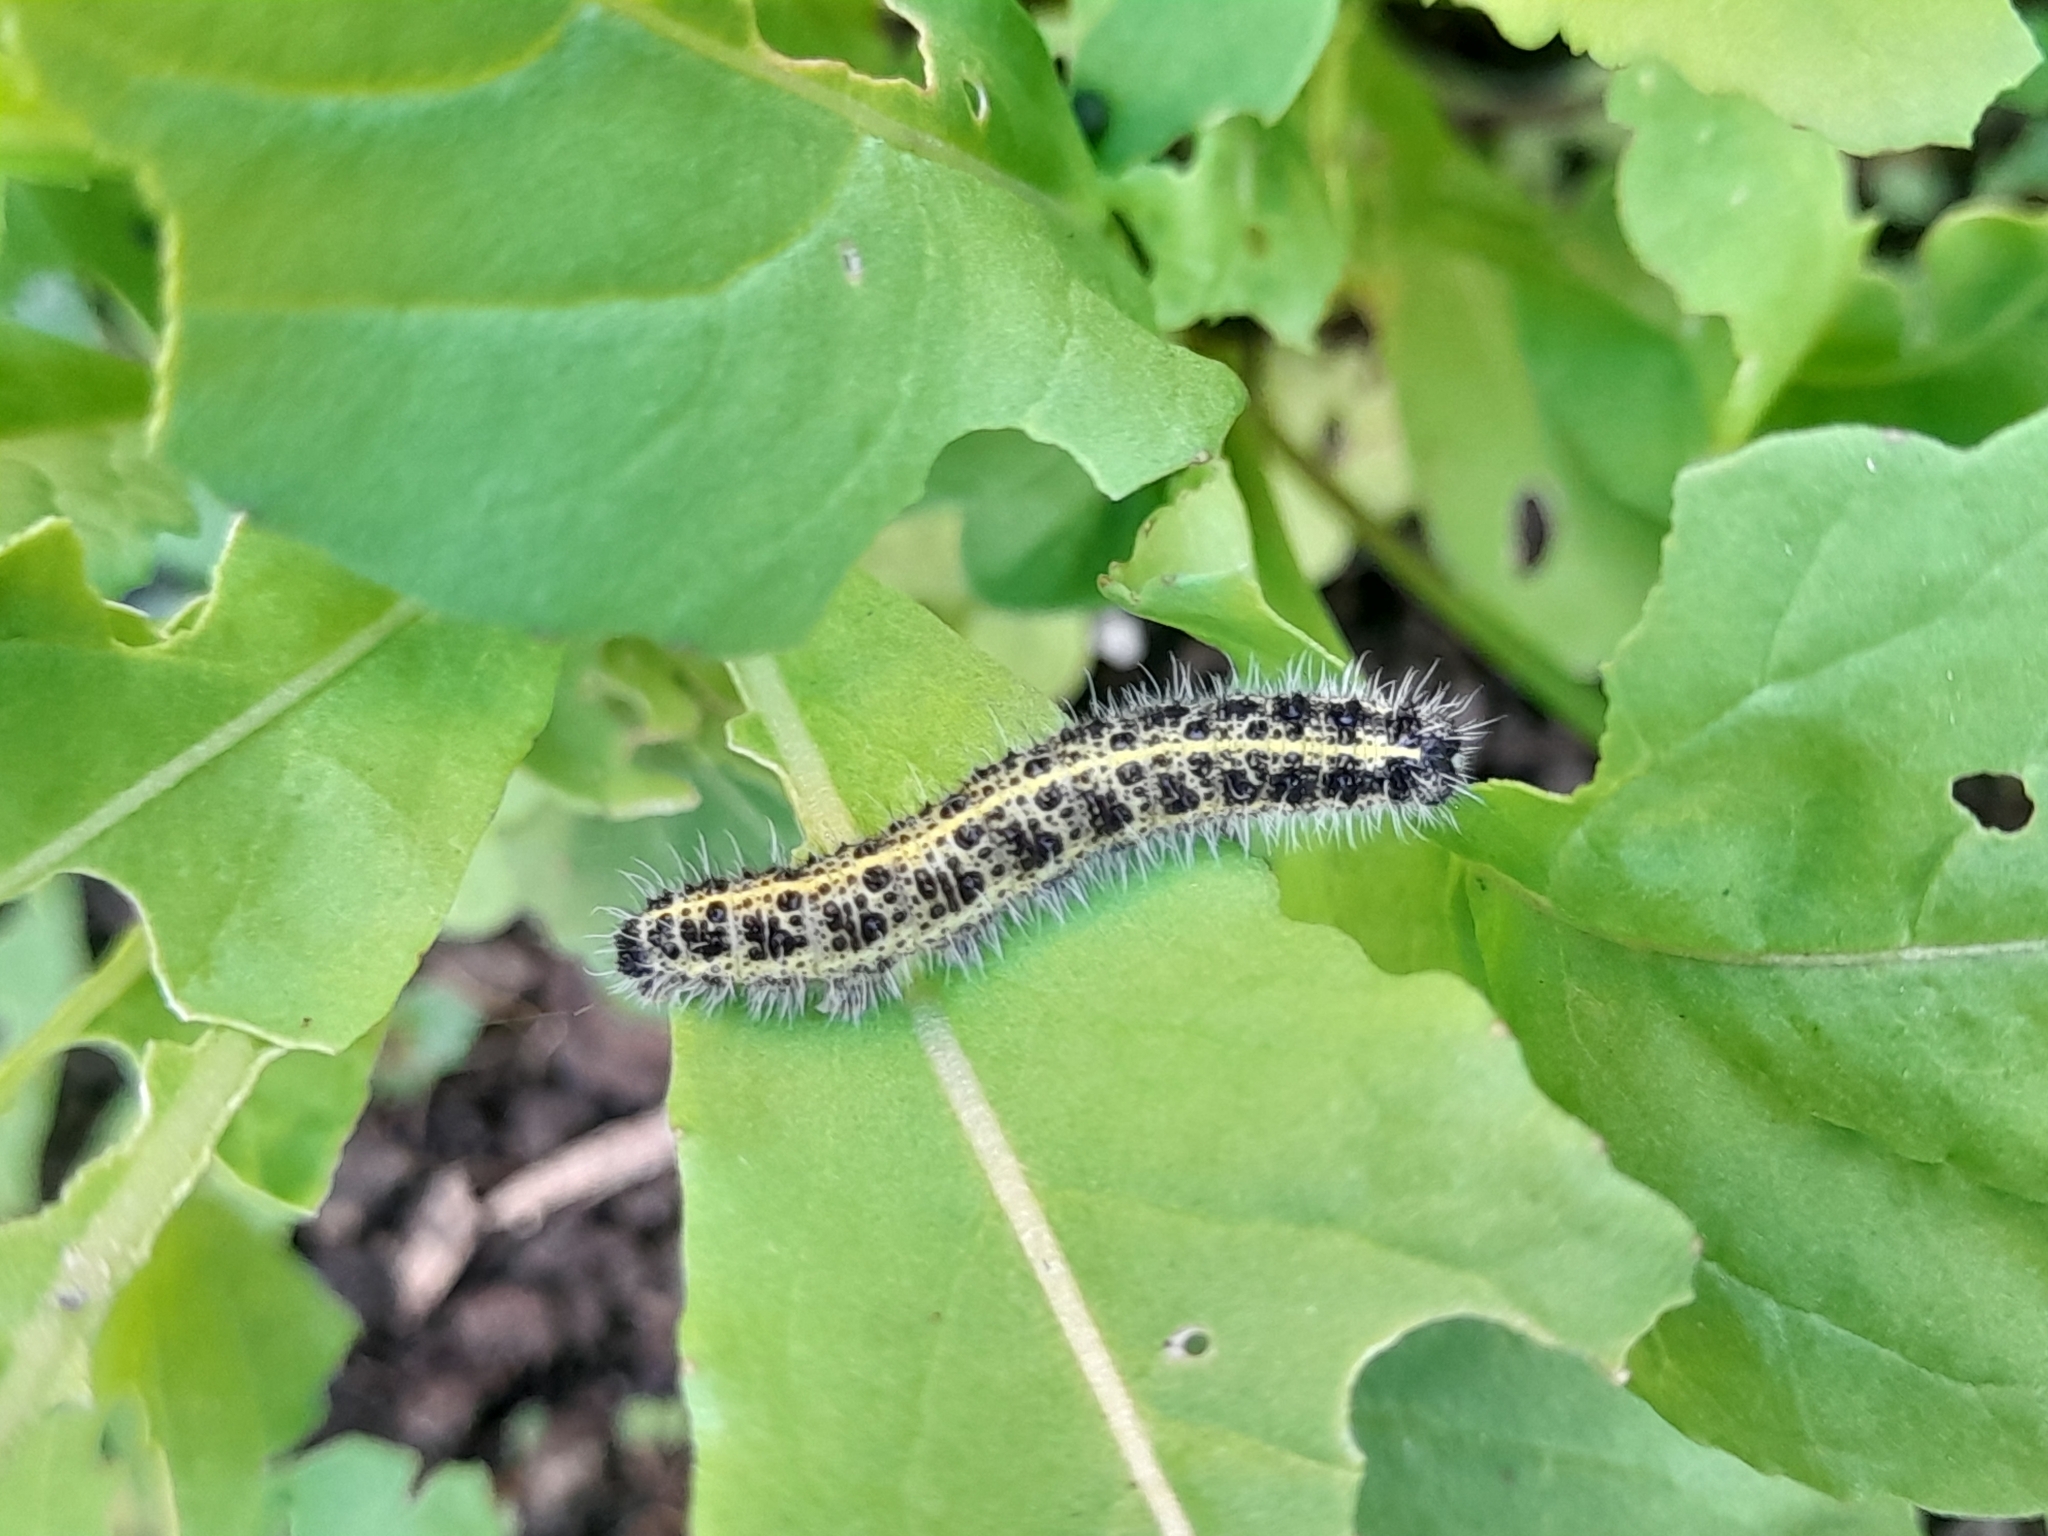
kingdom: Animalia
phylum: Arthropoda
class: Insecta
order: Lepidoptera
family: Pieridae
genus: Pieris
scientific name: Pieris brassicae
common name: Large white
